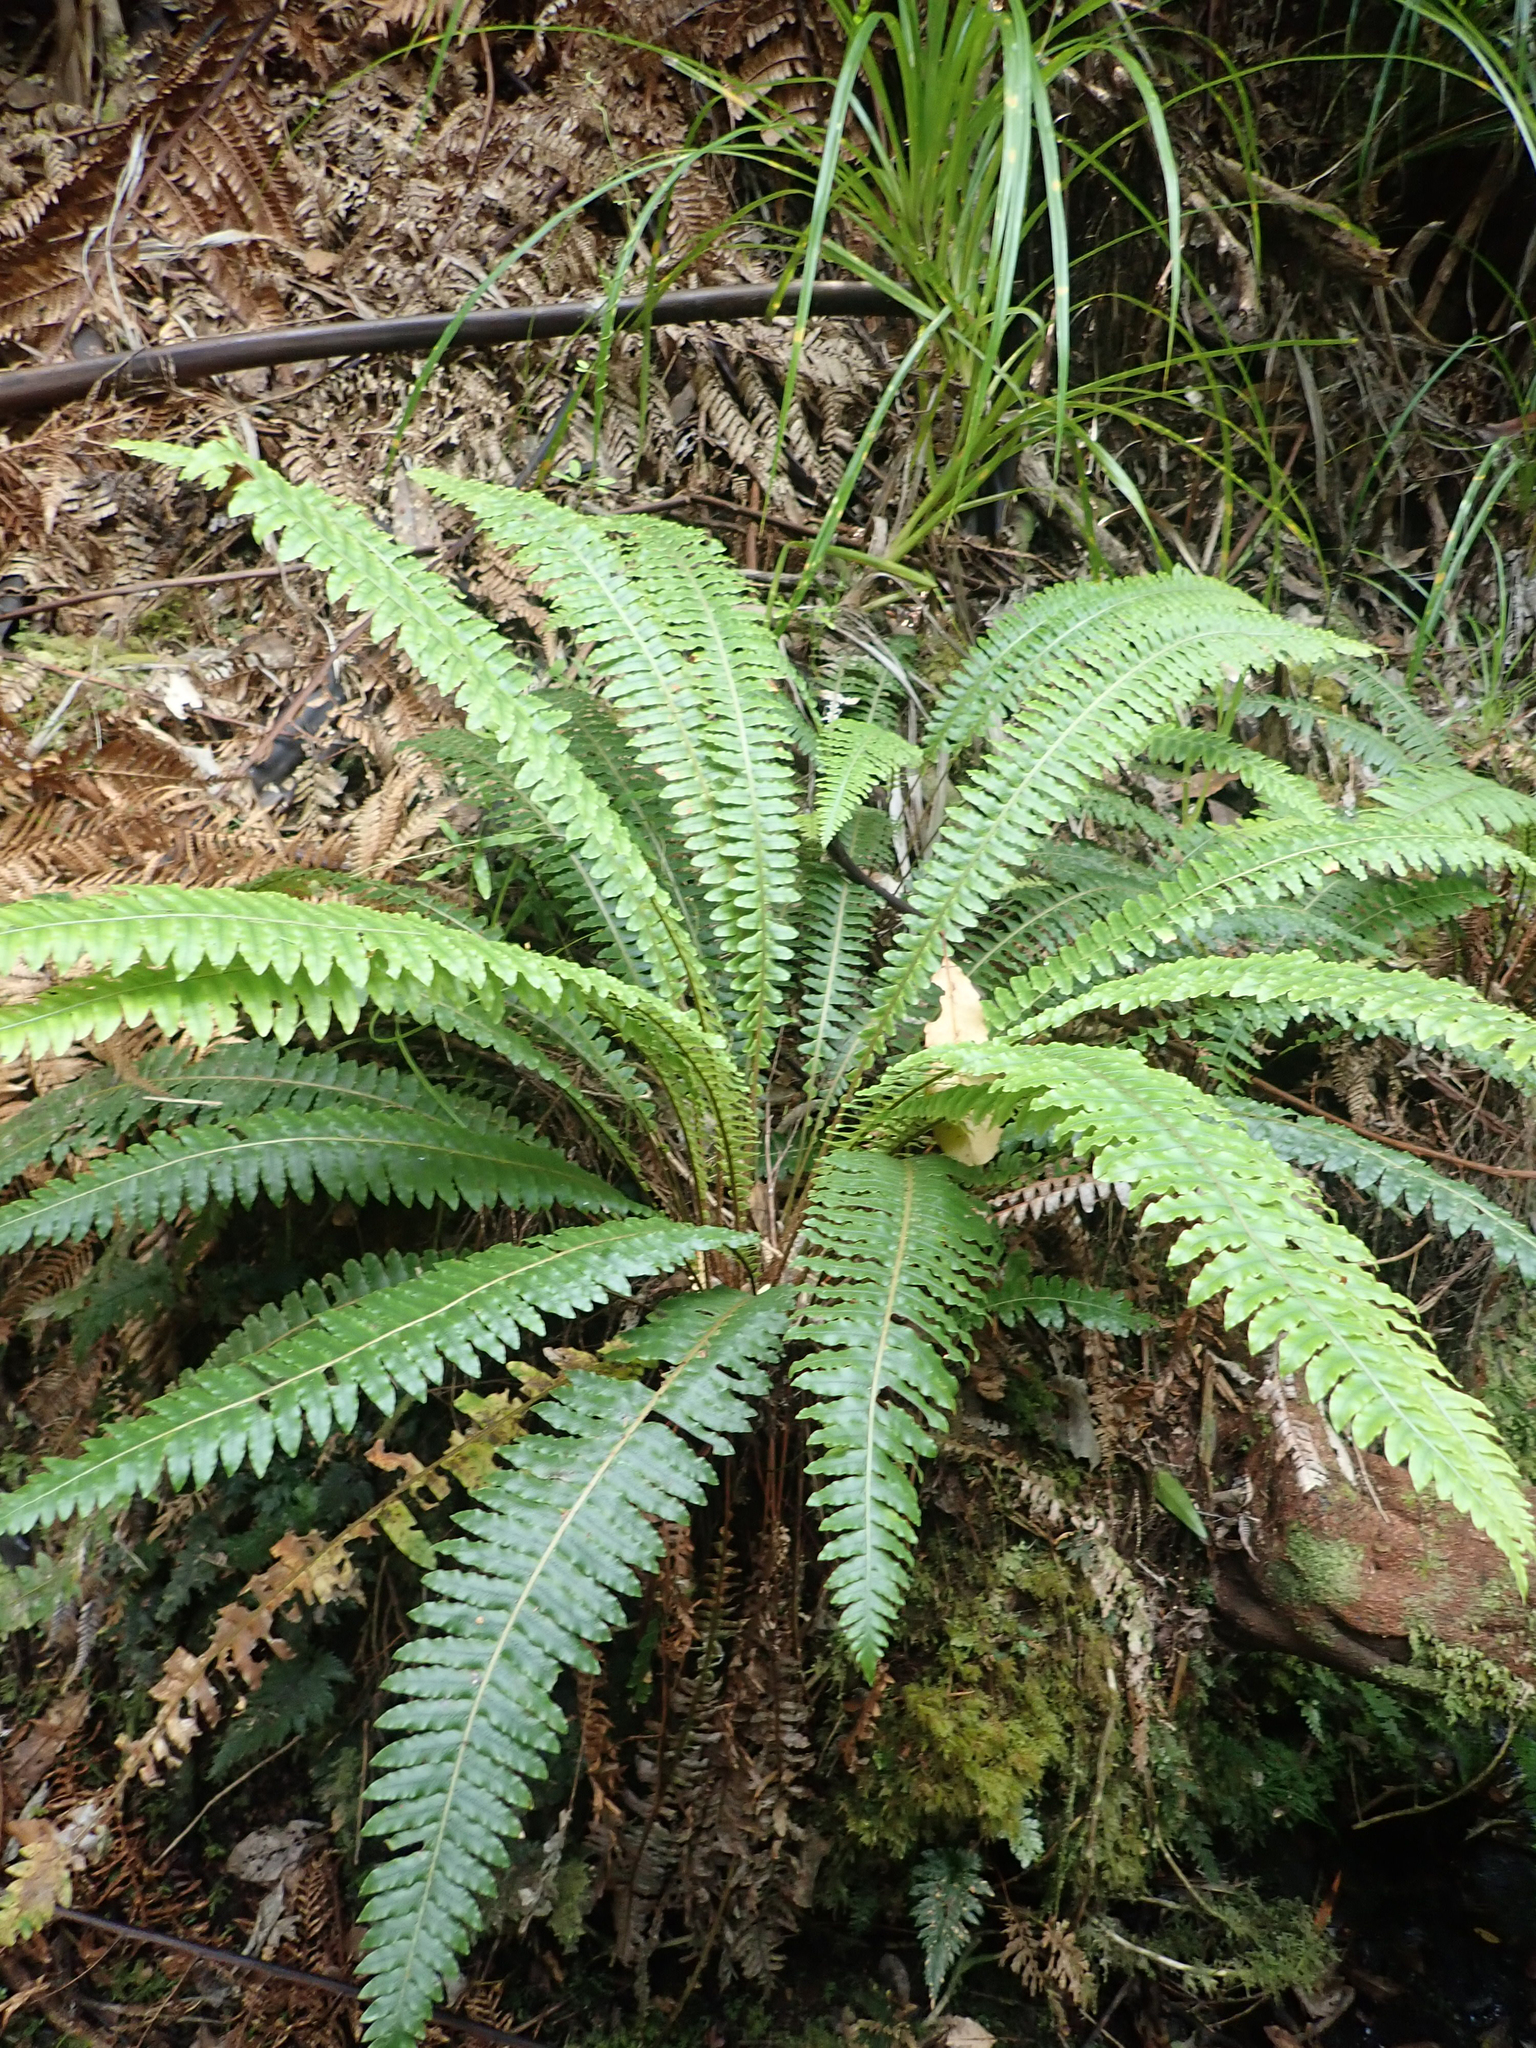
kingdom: Plantae
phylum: Tracheophyta
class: Polypodiopsida
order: Polypodiales
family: Blechnaceae
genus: Lomaria
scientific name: Lomaria discolor
